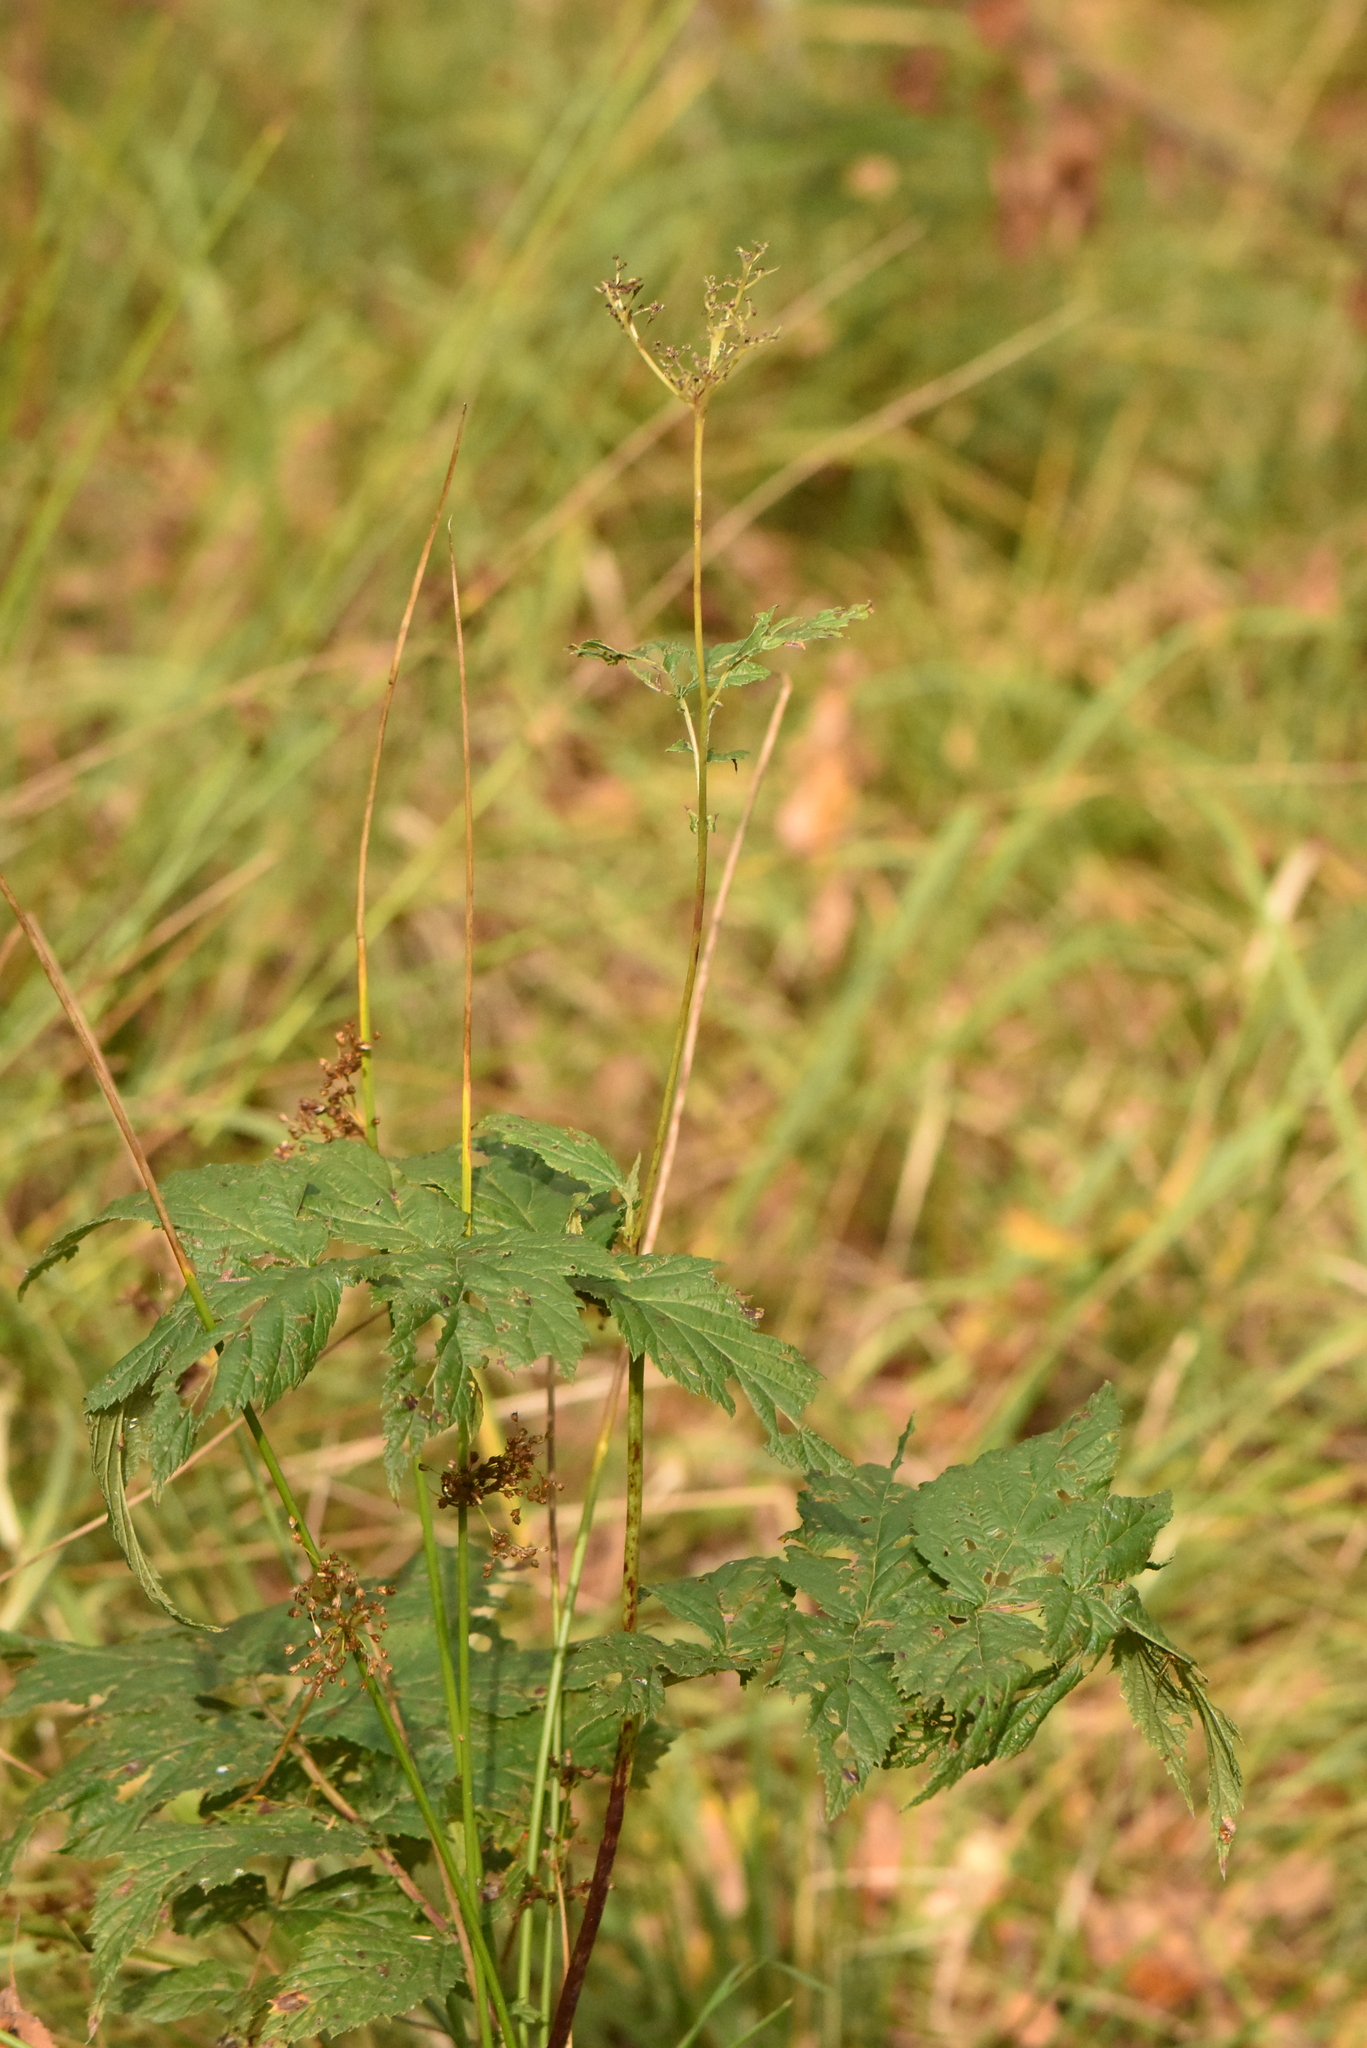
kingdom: Plantae
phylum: Tracheophyta
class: Magnoliopsida
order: Rosales
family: Rosaceae
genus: Filipendula
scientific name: Filipendula ulmaria
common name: Meadowsweet
